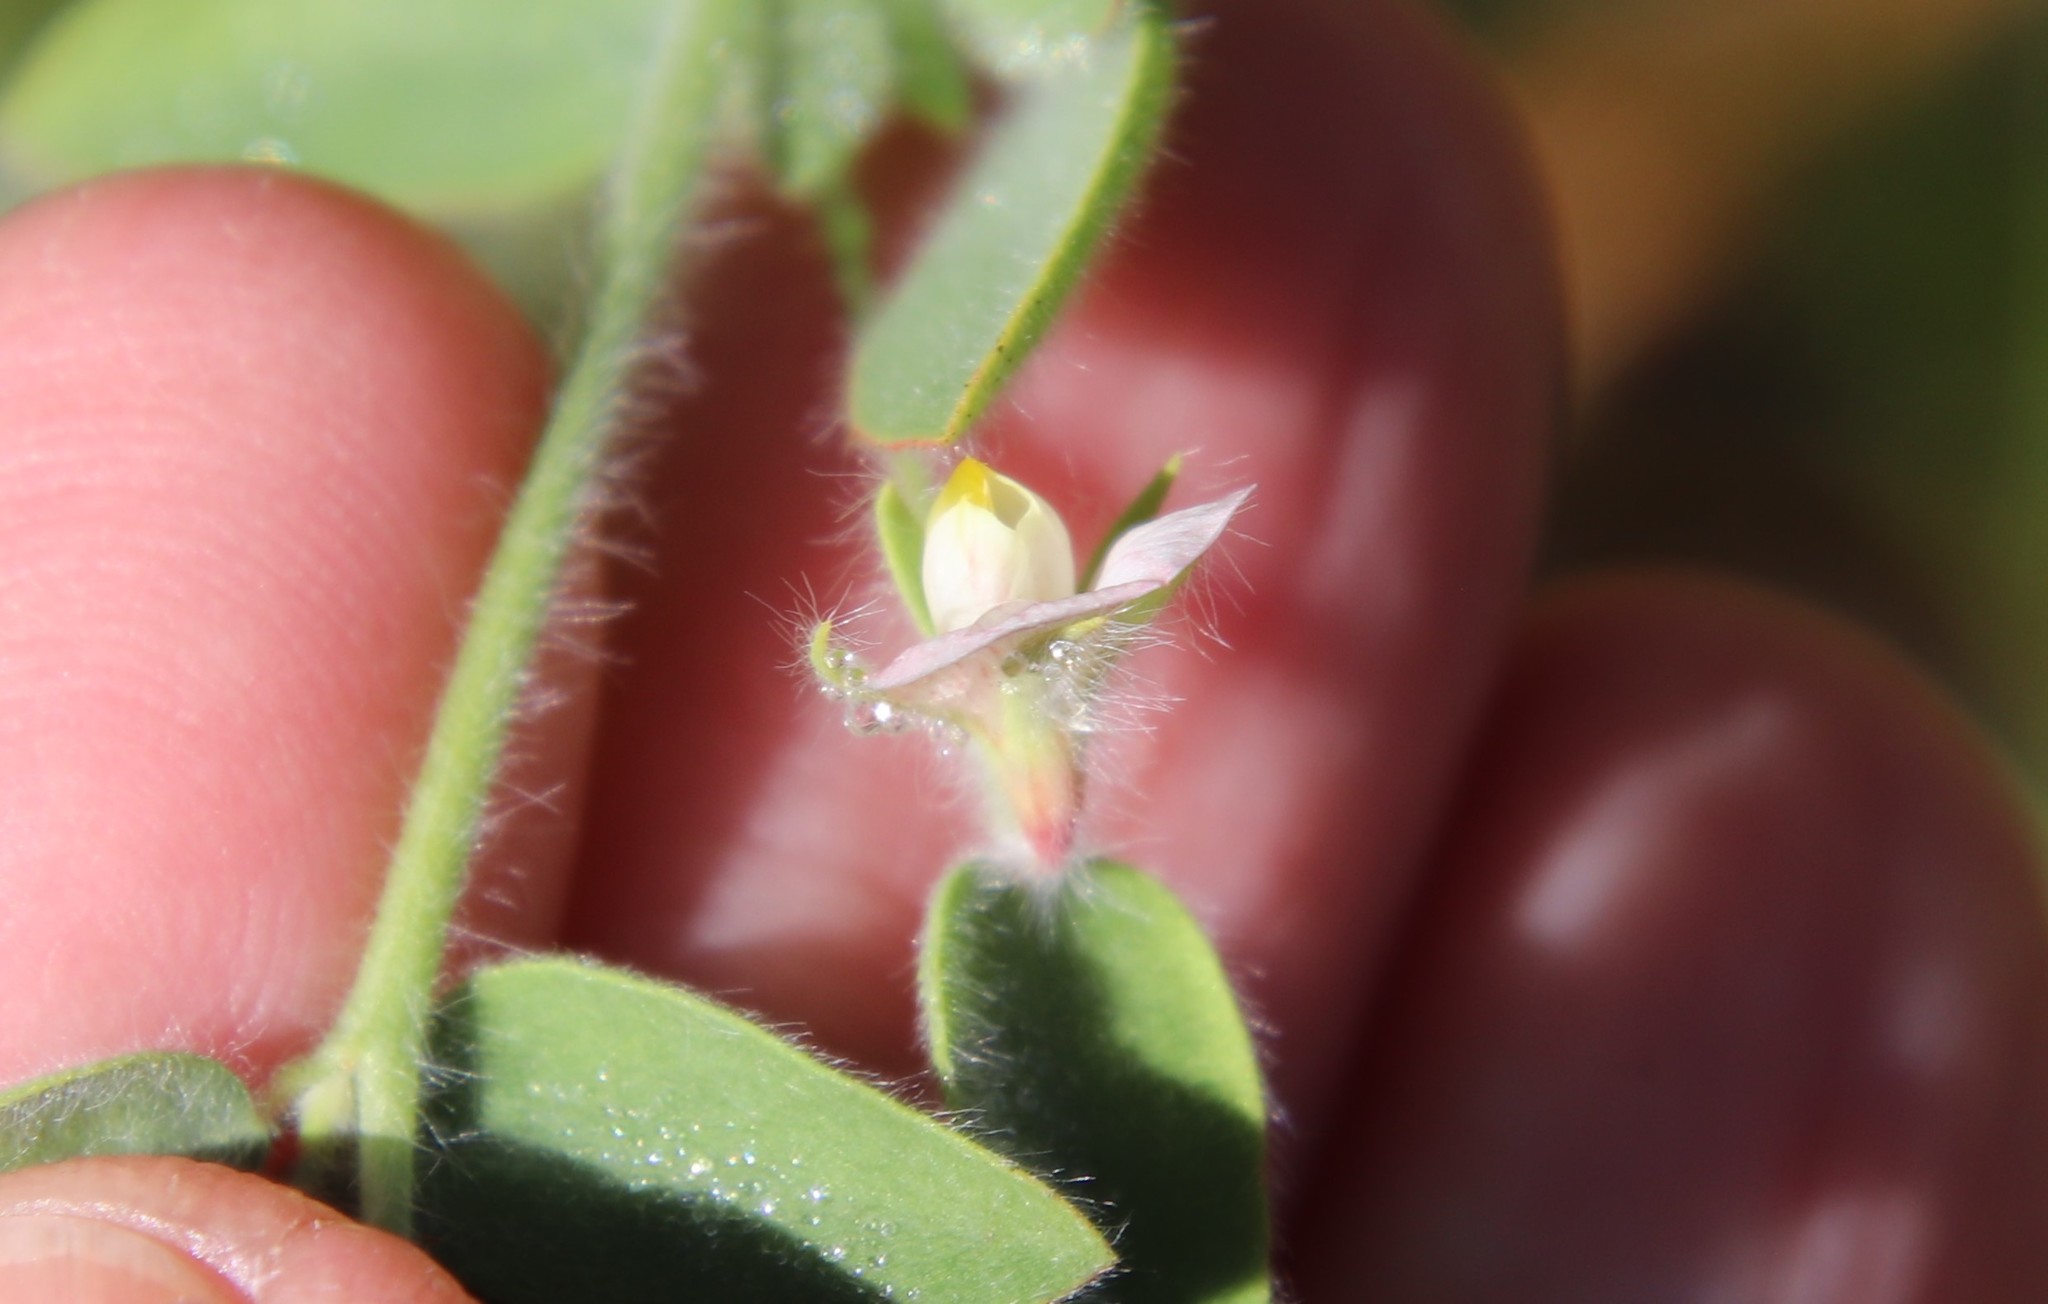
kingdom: Plantae
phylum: Tracheophyta
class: Magnoliopsida
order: Fabales
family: Fabaceae
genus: Acmispon
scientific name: Acmispon americanus
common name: American bird's-foot trefoil
